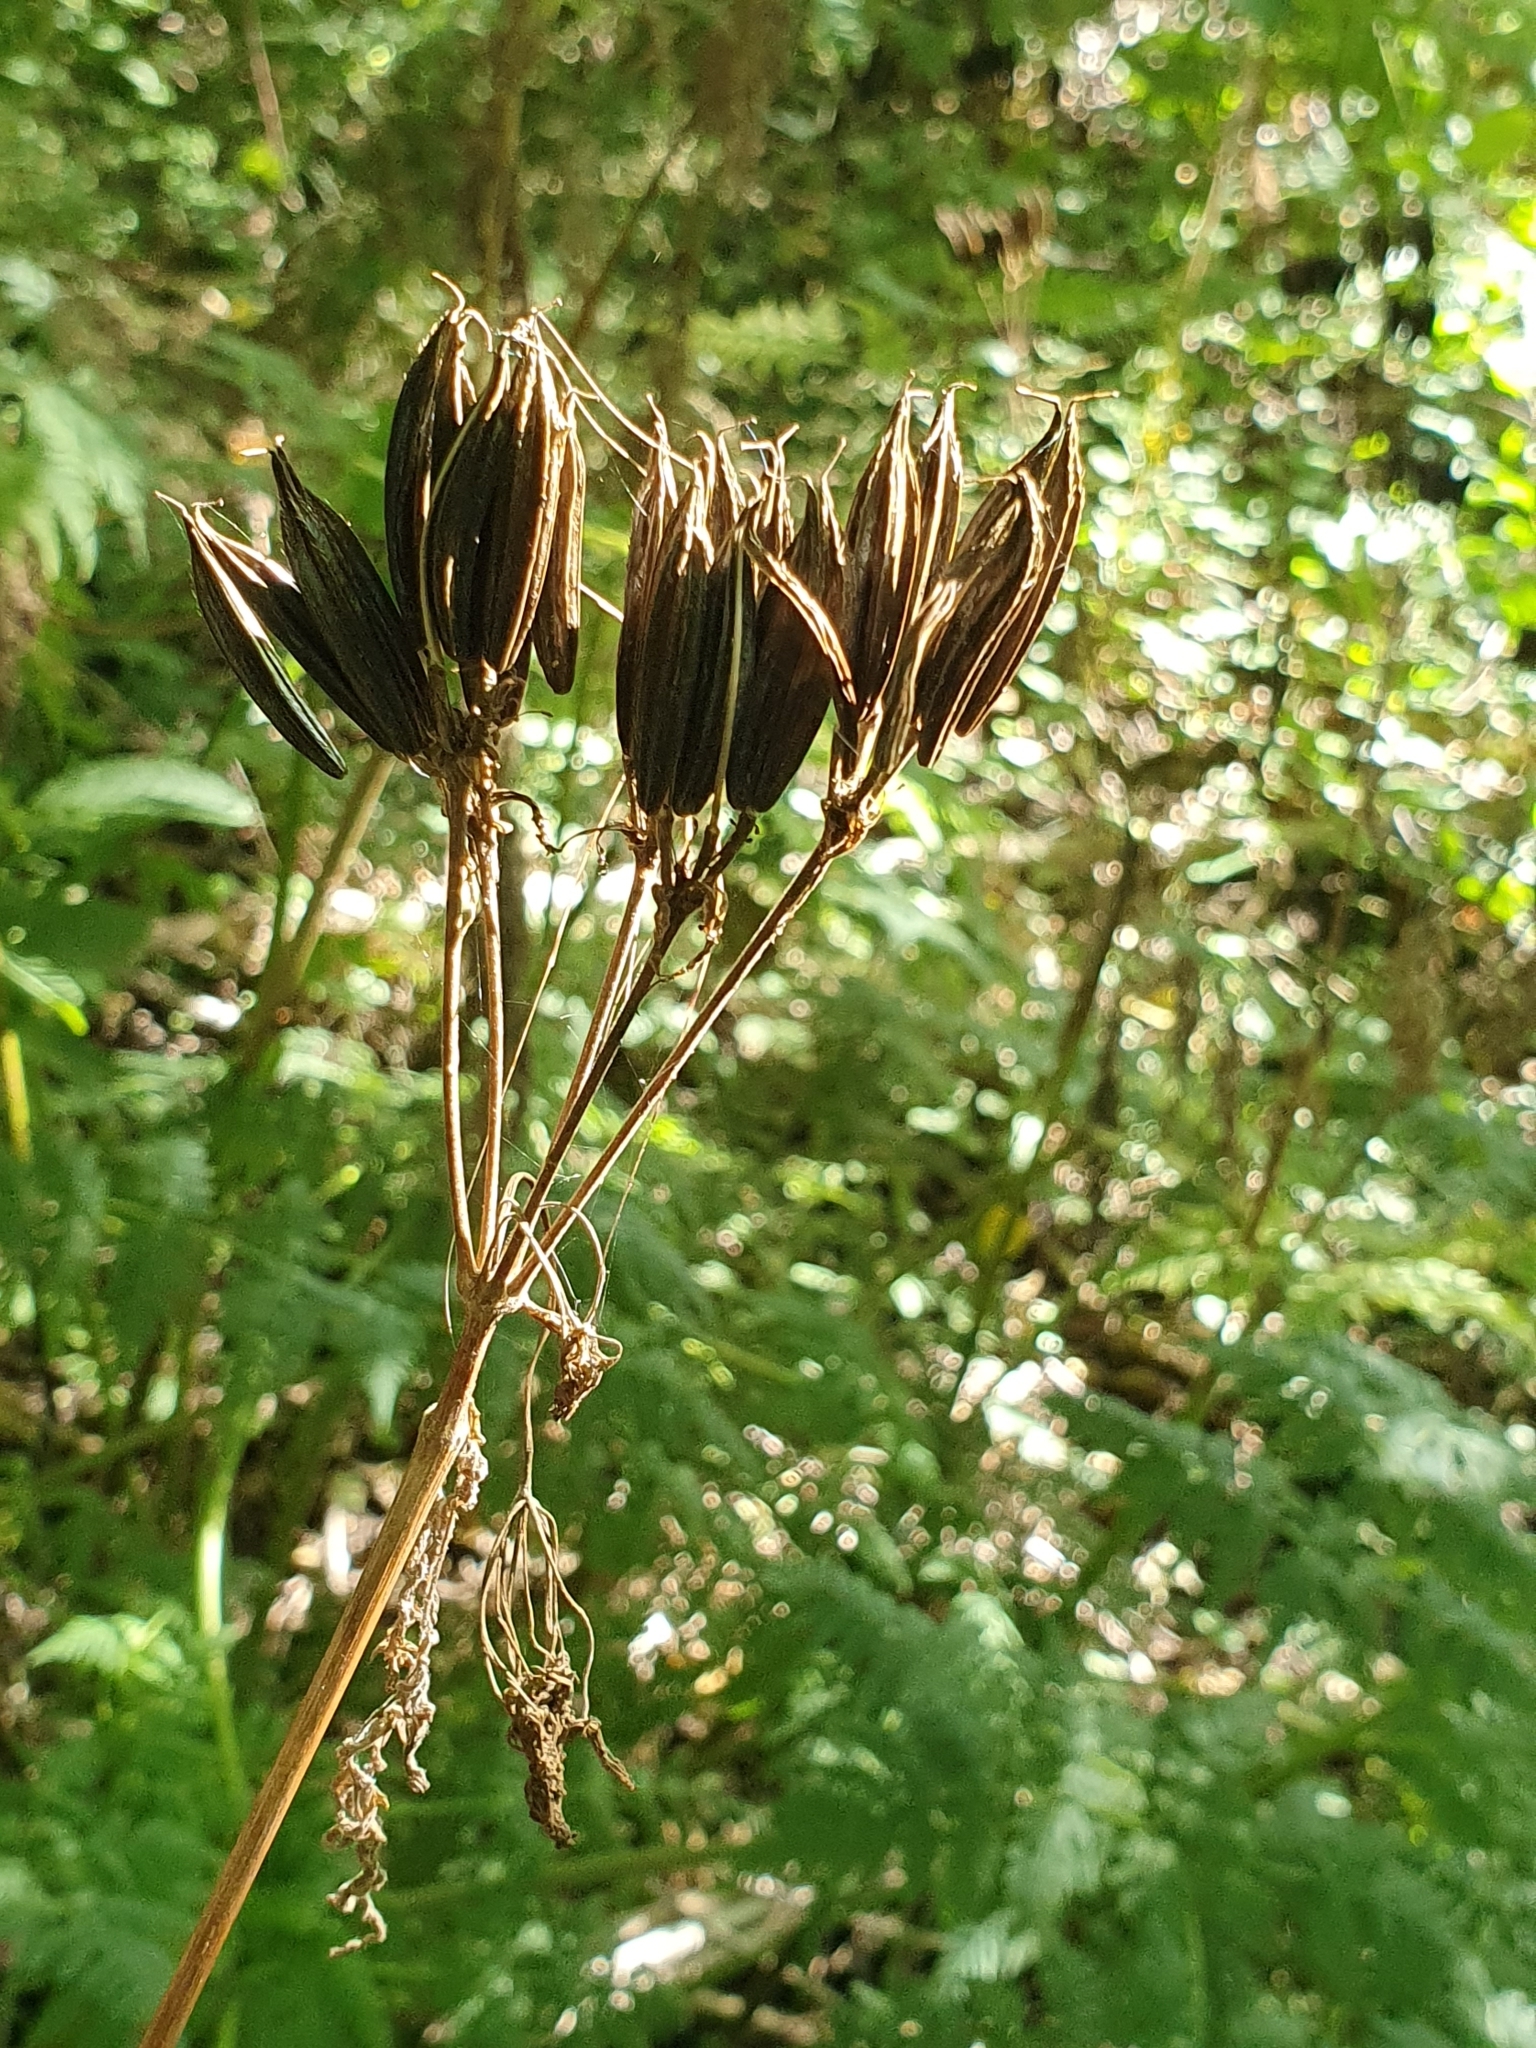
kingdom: Plantae
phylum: Tracheophyta
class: Magnoliopsida
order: Apiales
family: Apiaceae
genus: Myrrhis
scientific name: Myrrhis odorata
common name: Sweet cicely
